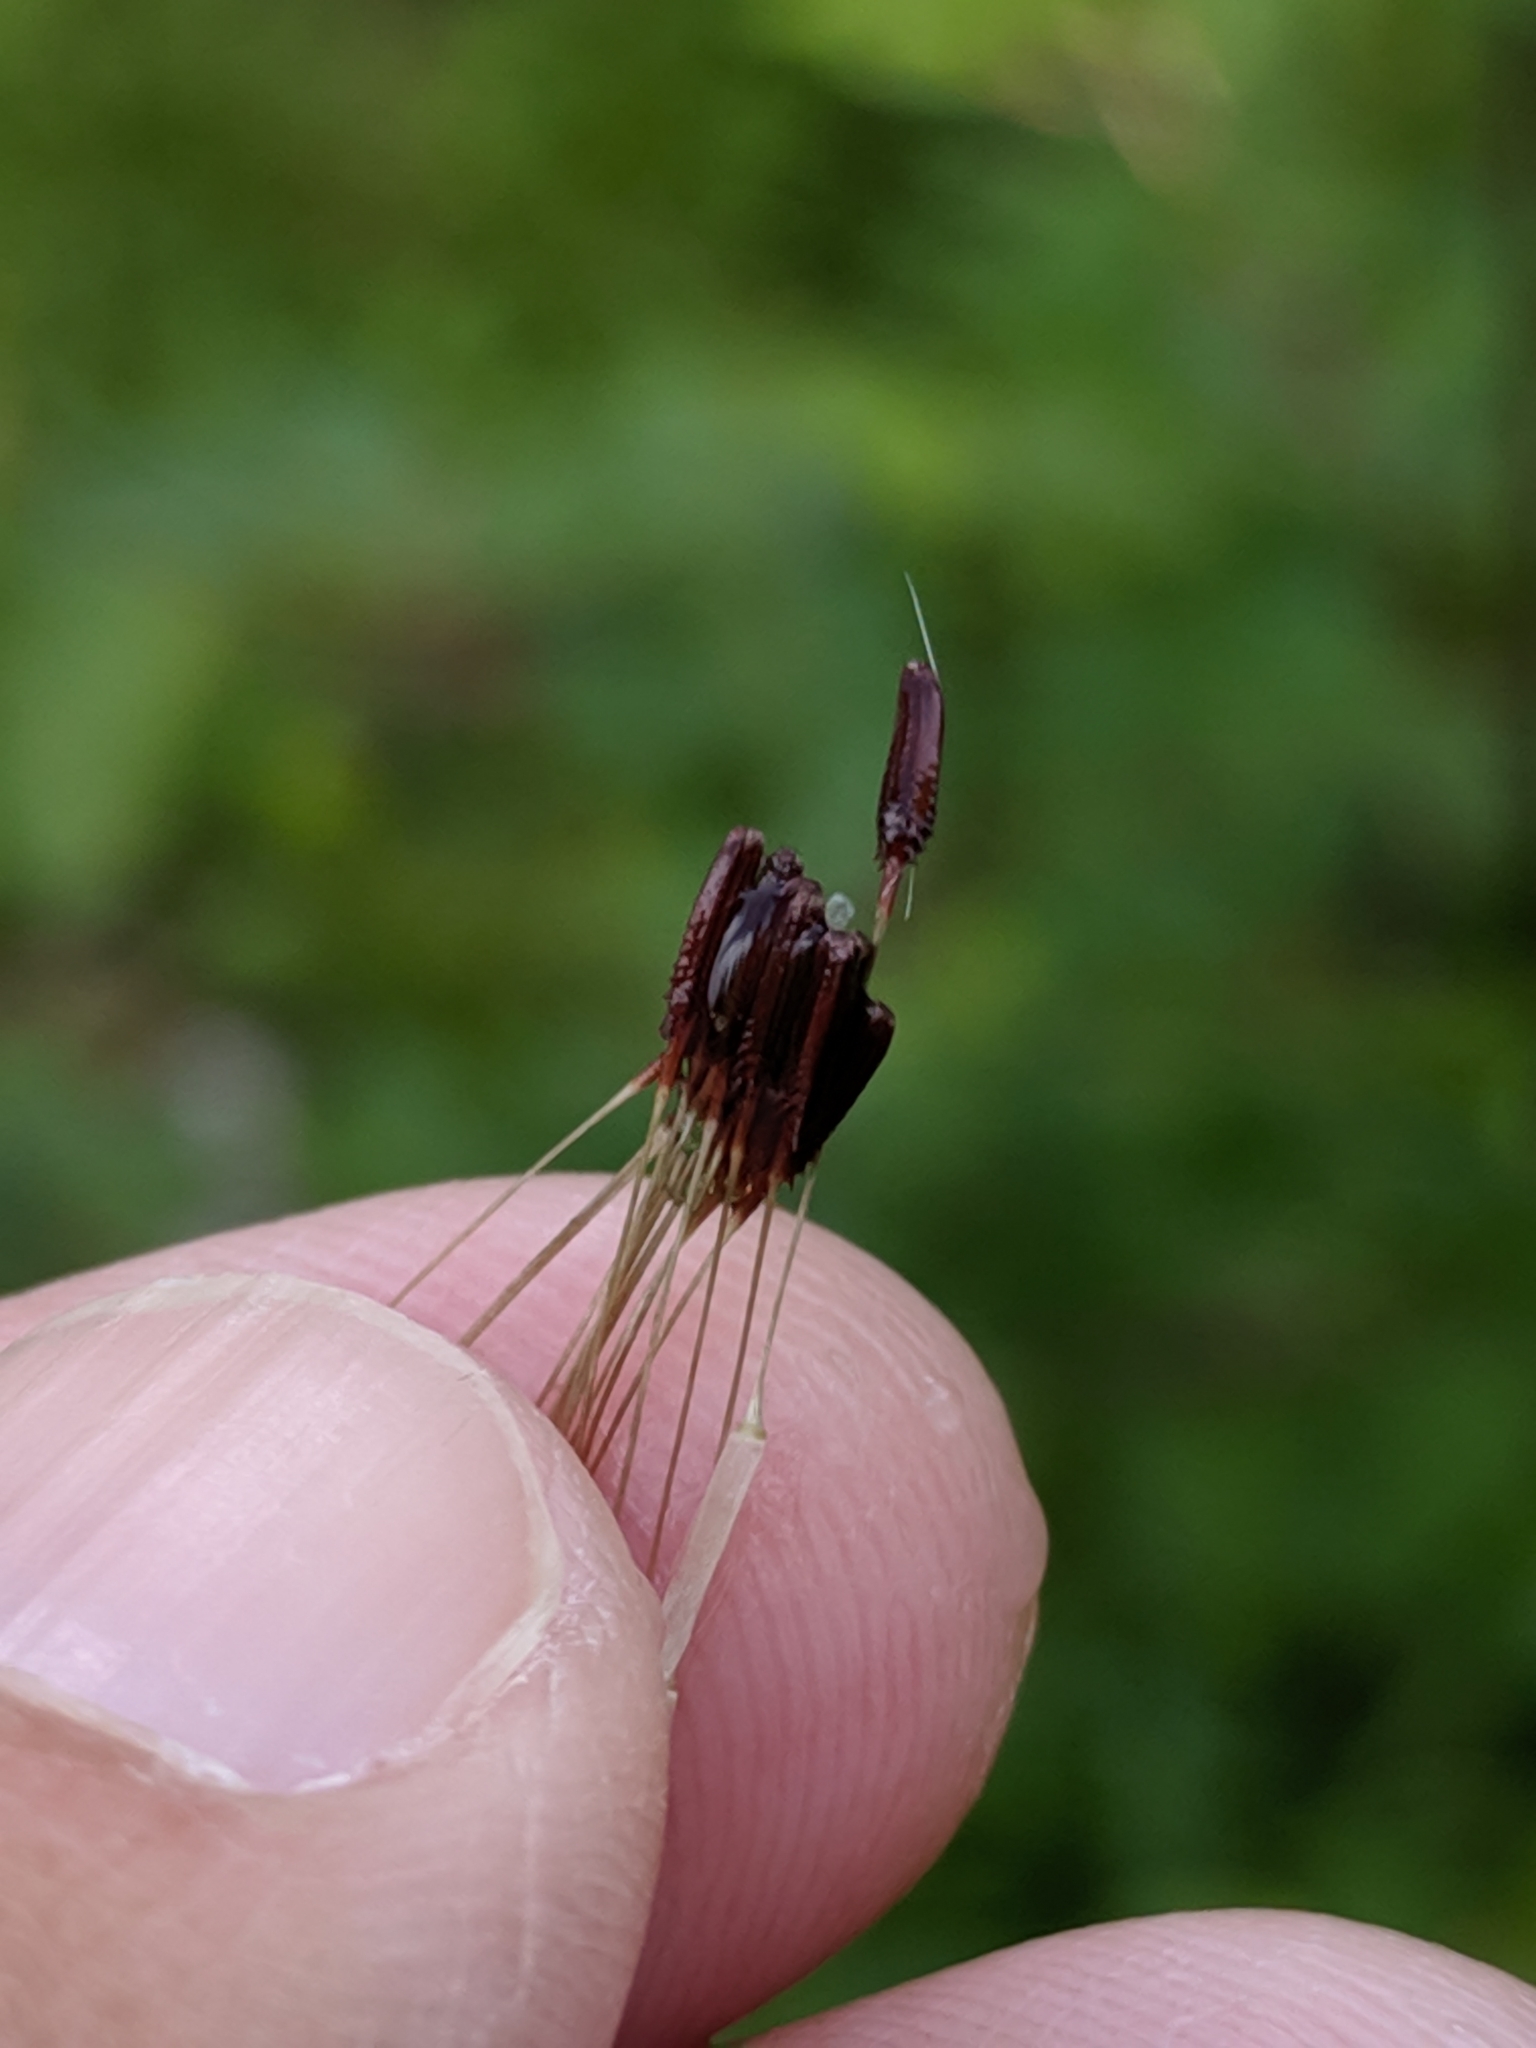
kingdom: Plantae
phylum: Tracheophyta
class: Magnoliopsida
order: Asterales
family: Asteraceae
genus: Taraxacum
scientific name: Taraxacum erythrospermum
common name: Rock dandelion
